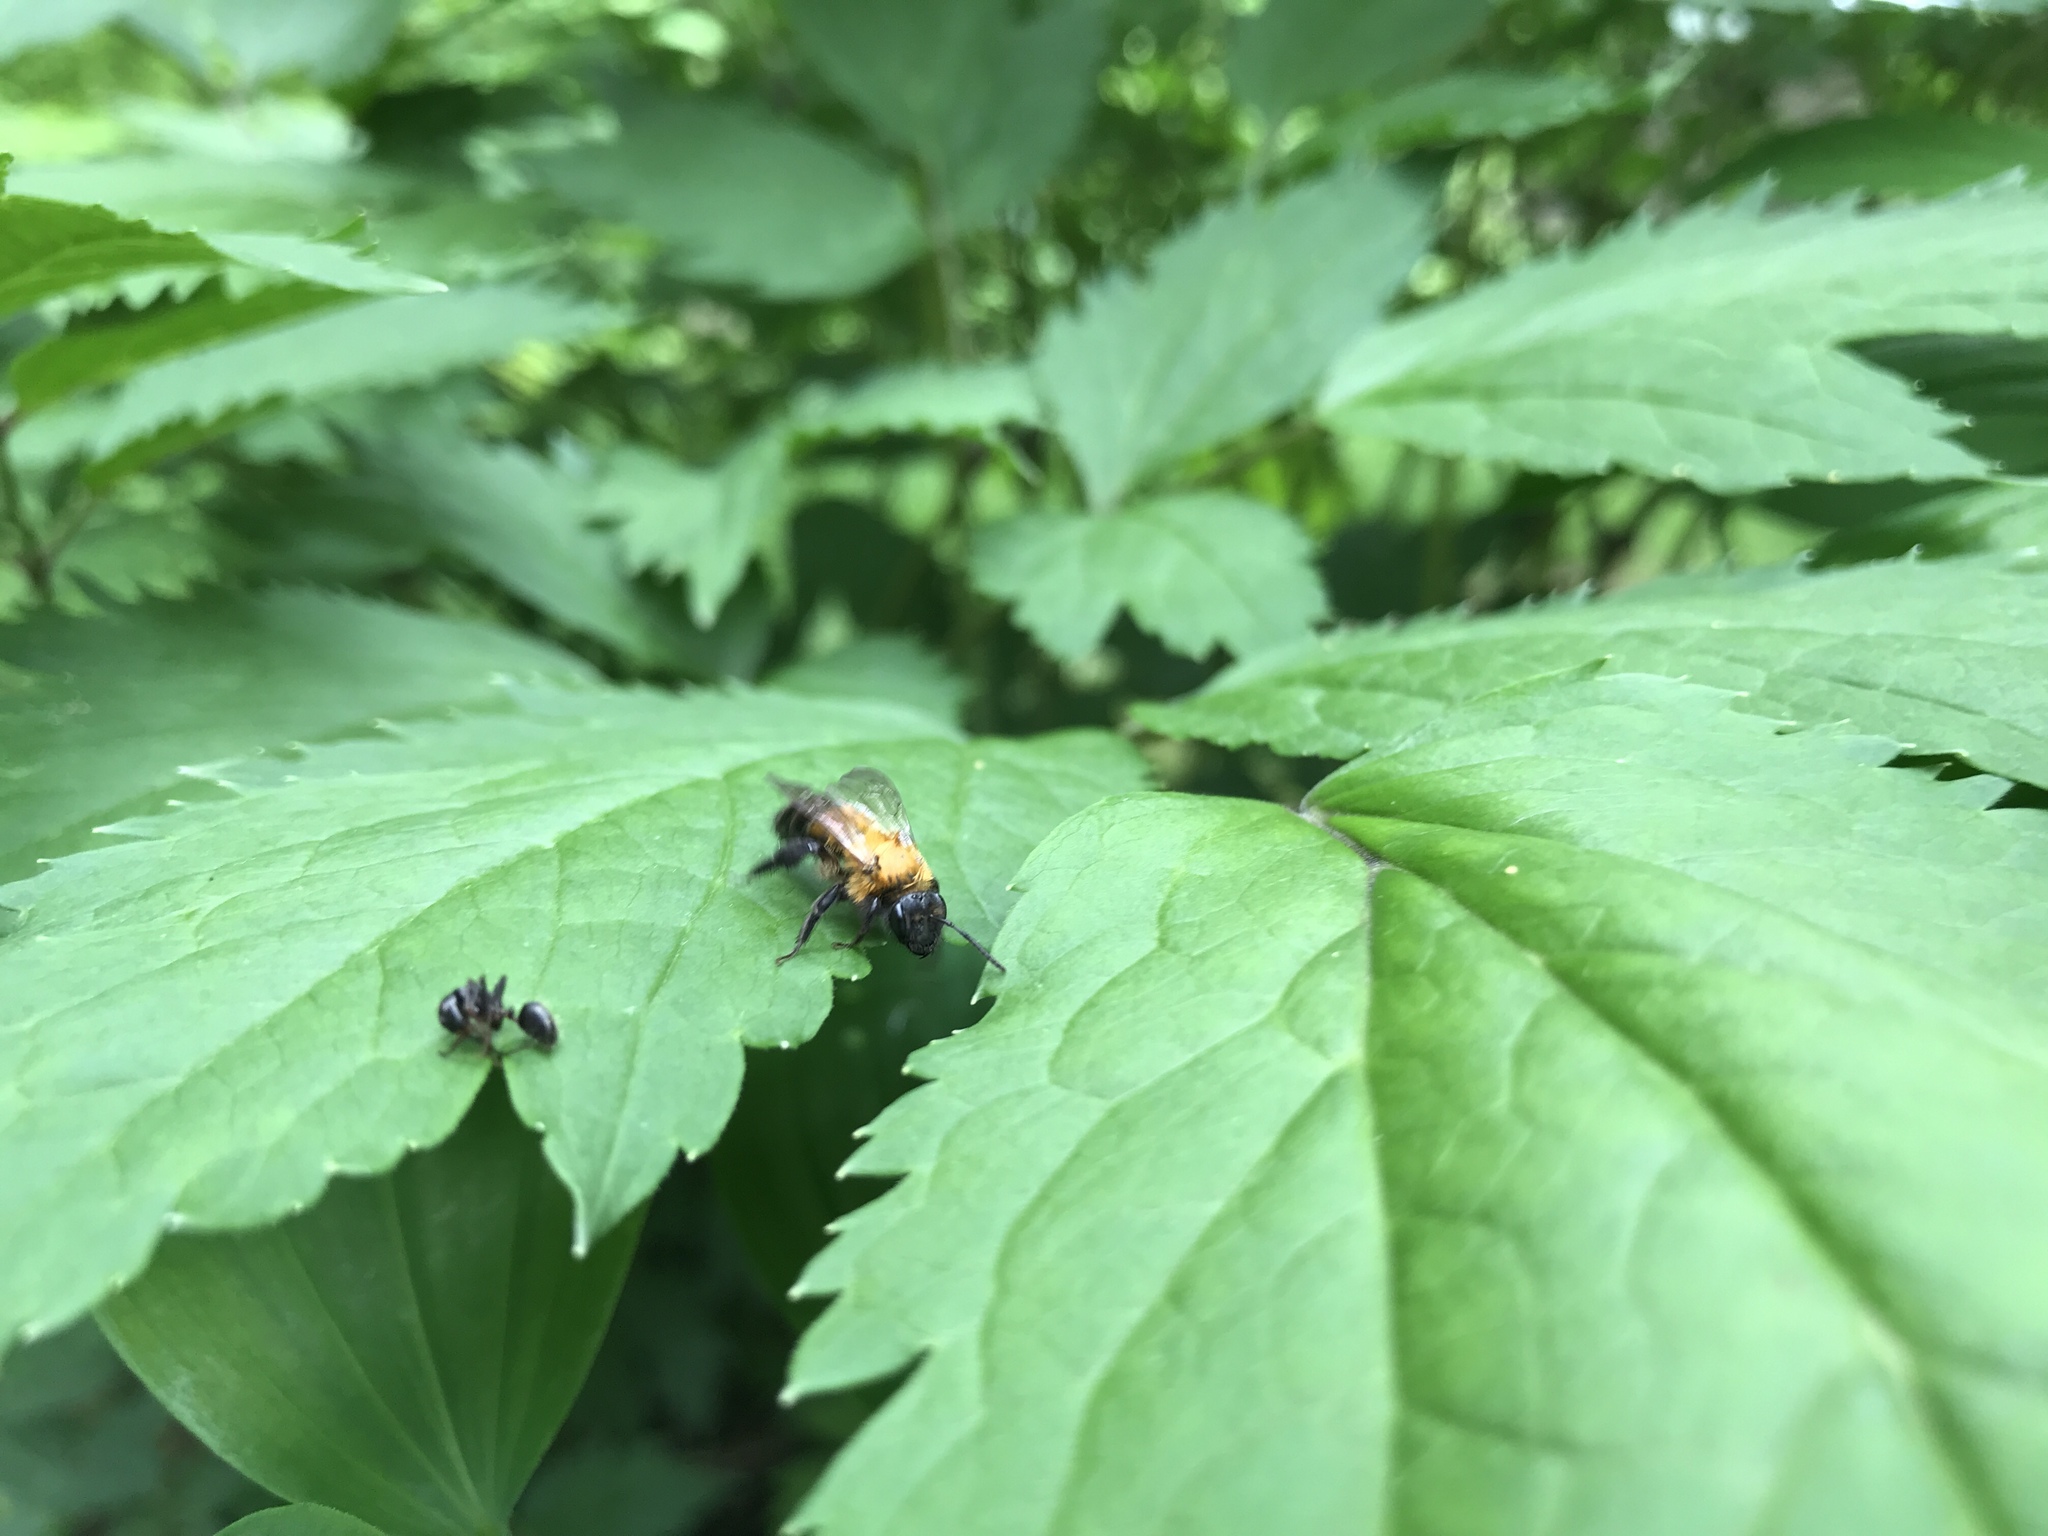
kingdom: Animalia
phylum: Arthropoda
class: Insecta
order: Hymenoptera
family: Andrenidae
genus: Andrena
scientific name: Andrena milwaukeensis
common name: Milwaukee mining bee
